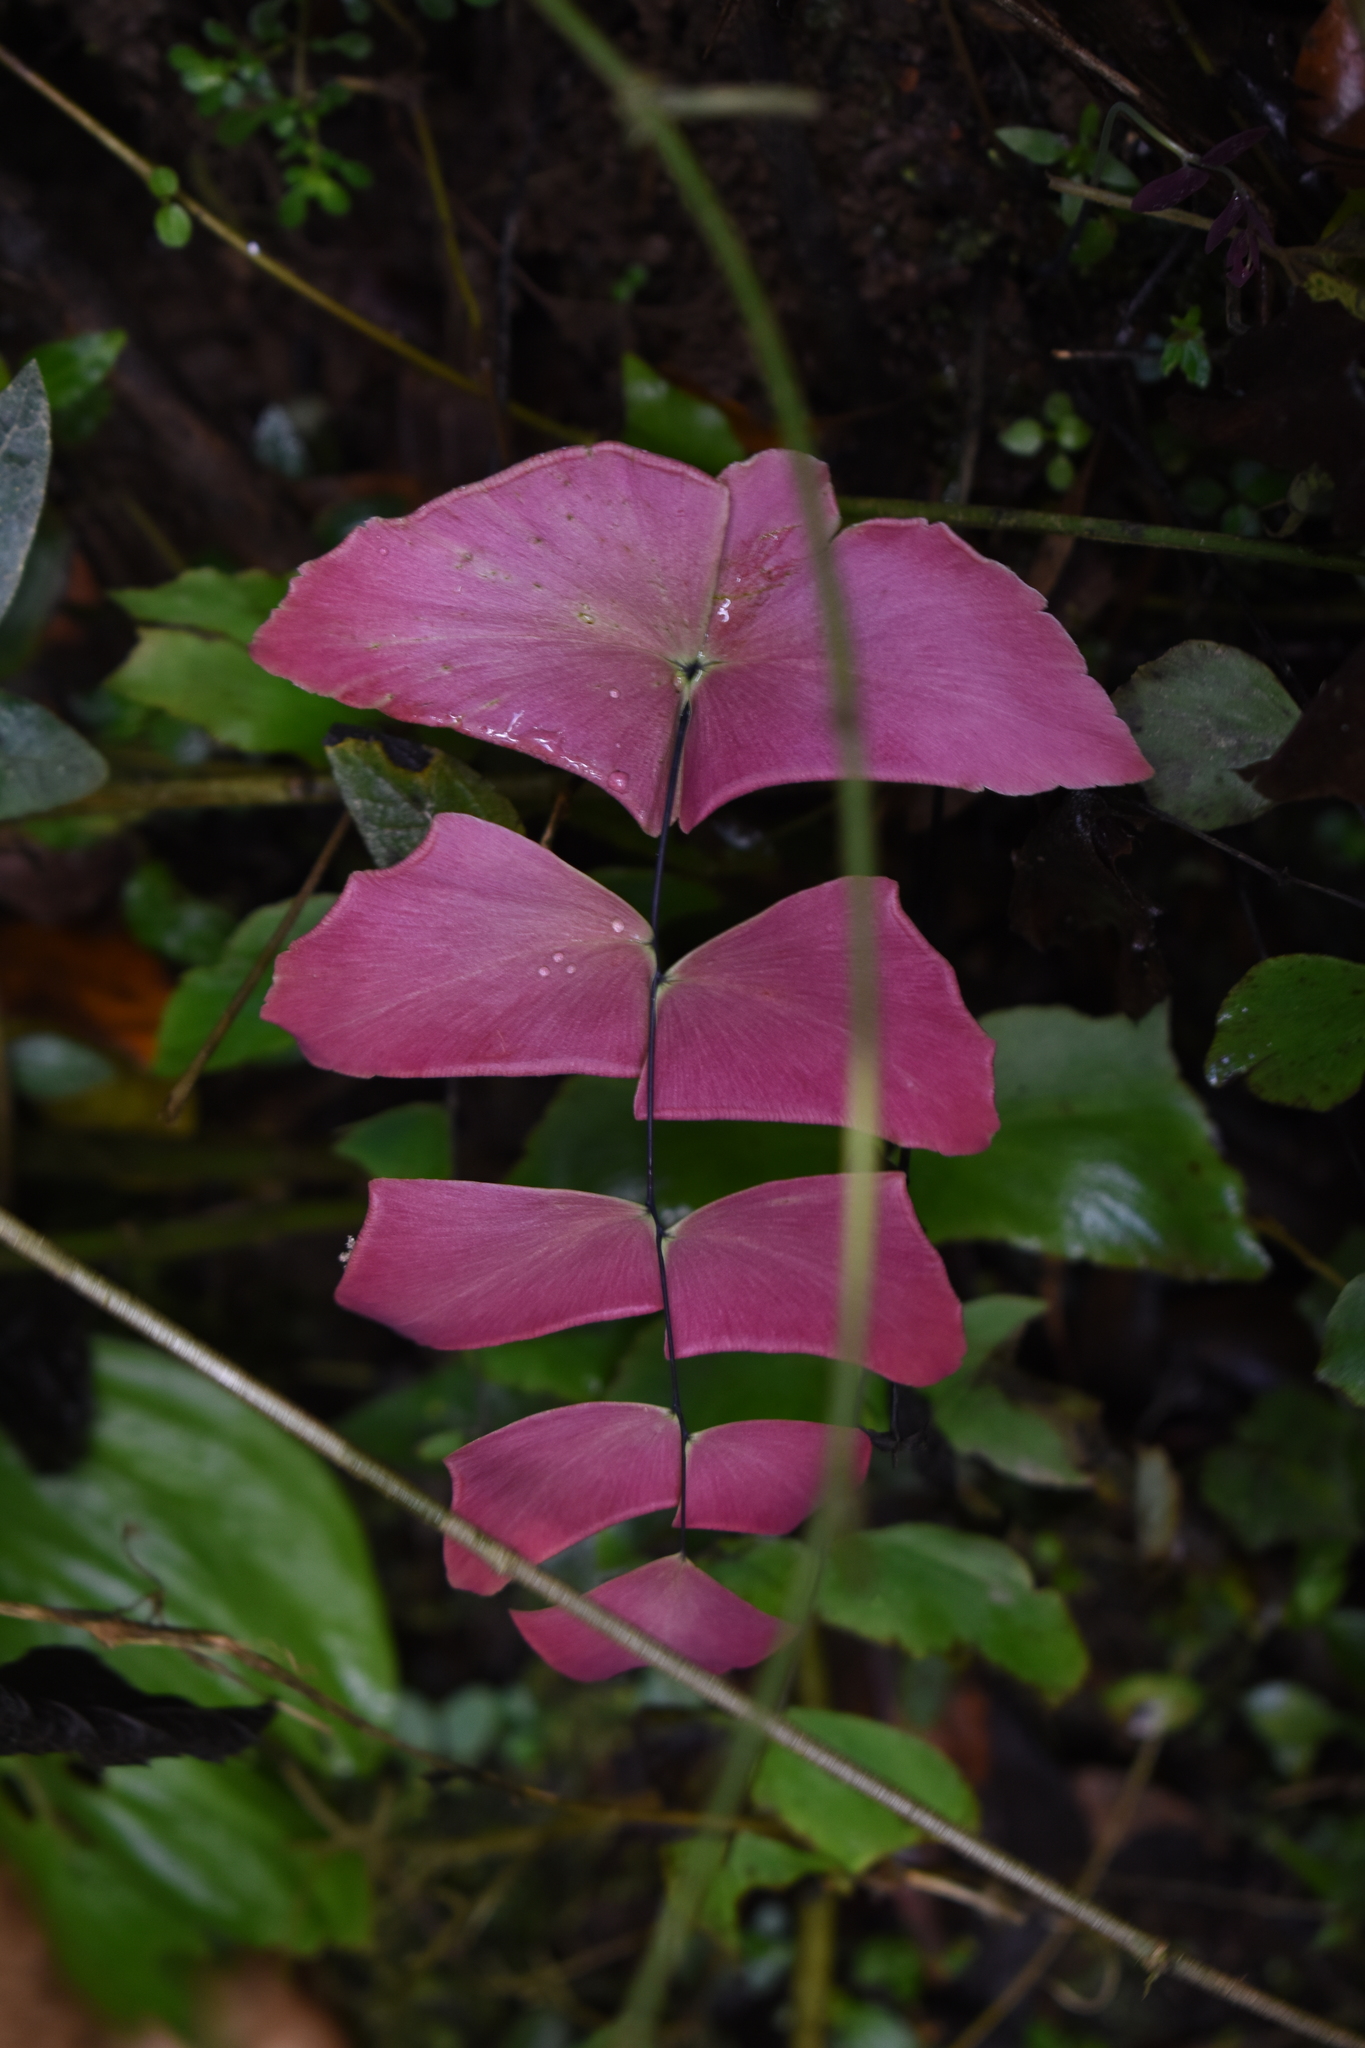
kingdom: Plantae
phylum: Tracheophyta
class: Polypodiopsida
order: Polypodiales
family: Pteridaceae
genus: Adiantum
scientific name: Adiantum macrophyllum
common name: Largeleaf maidenhair
